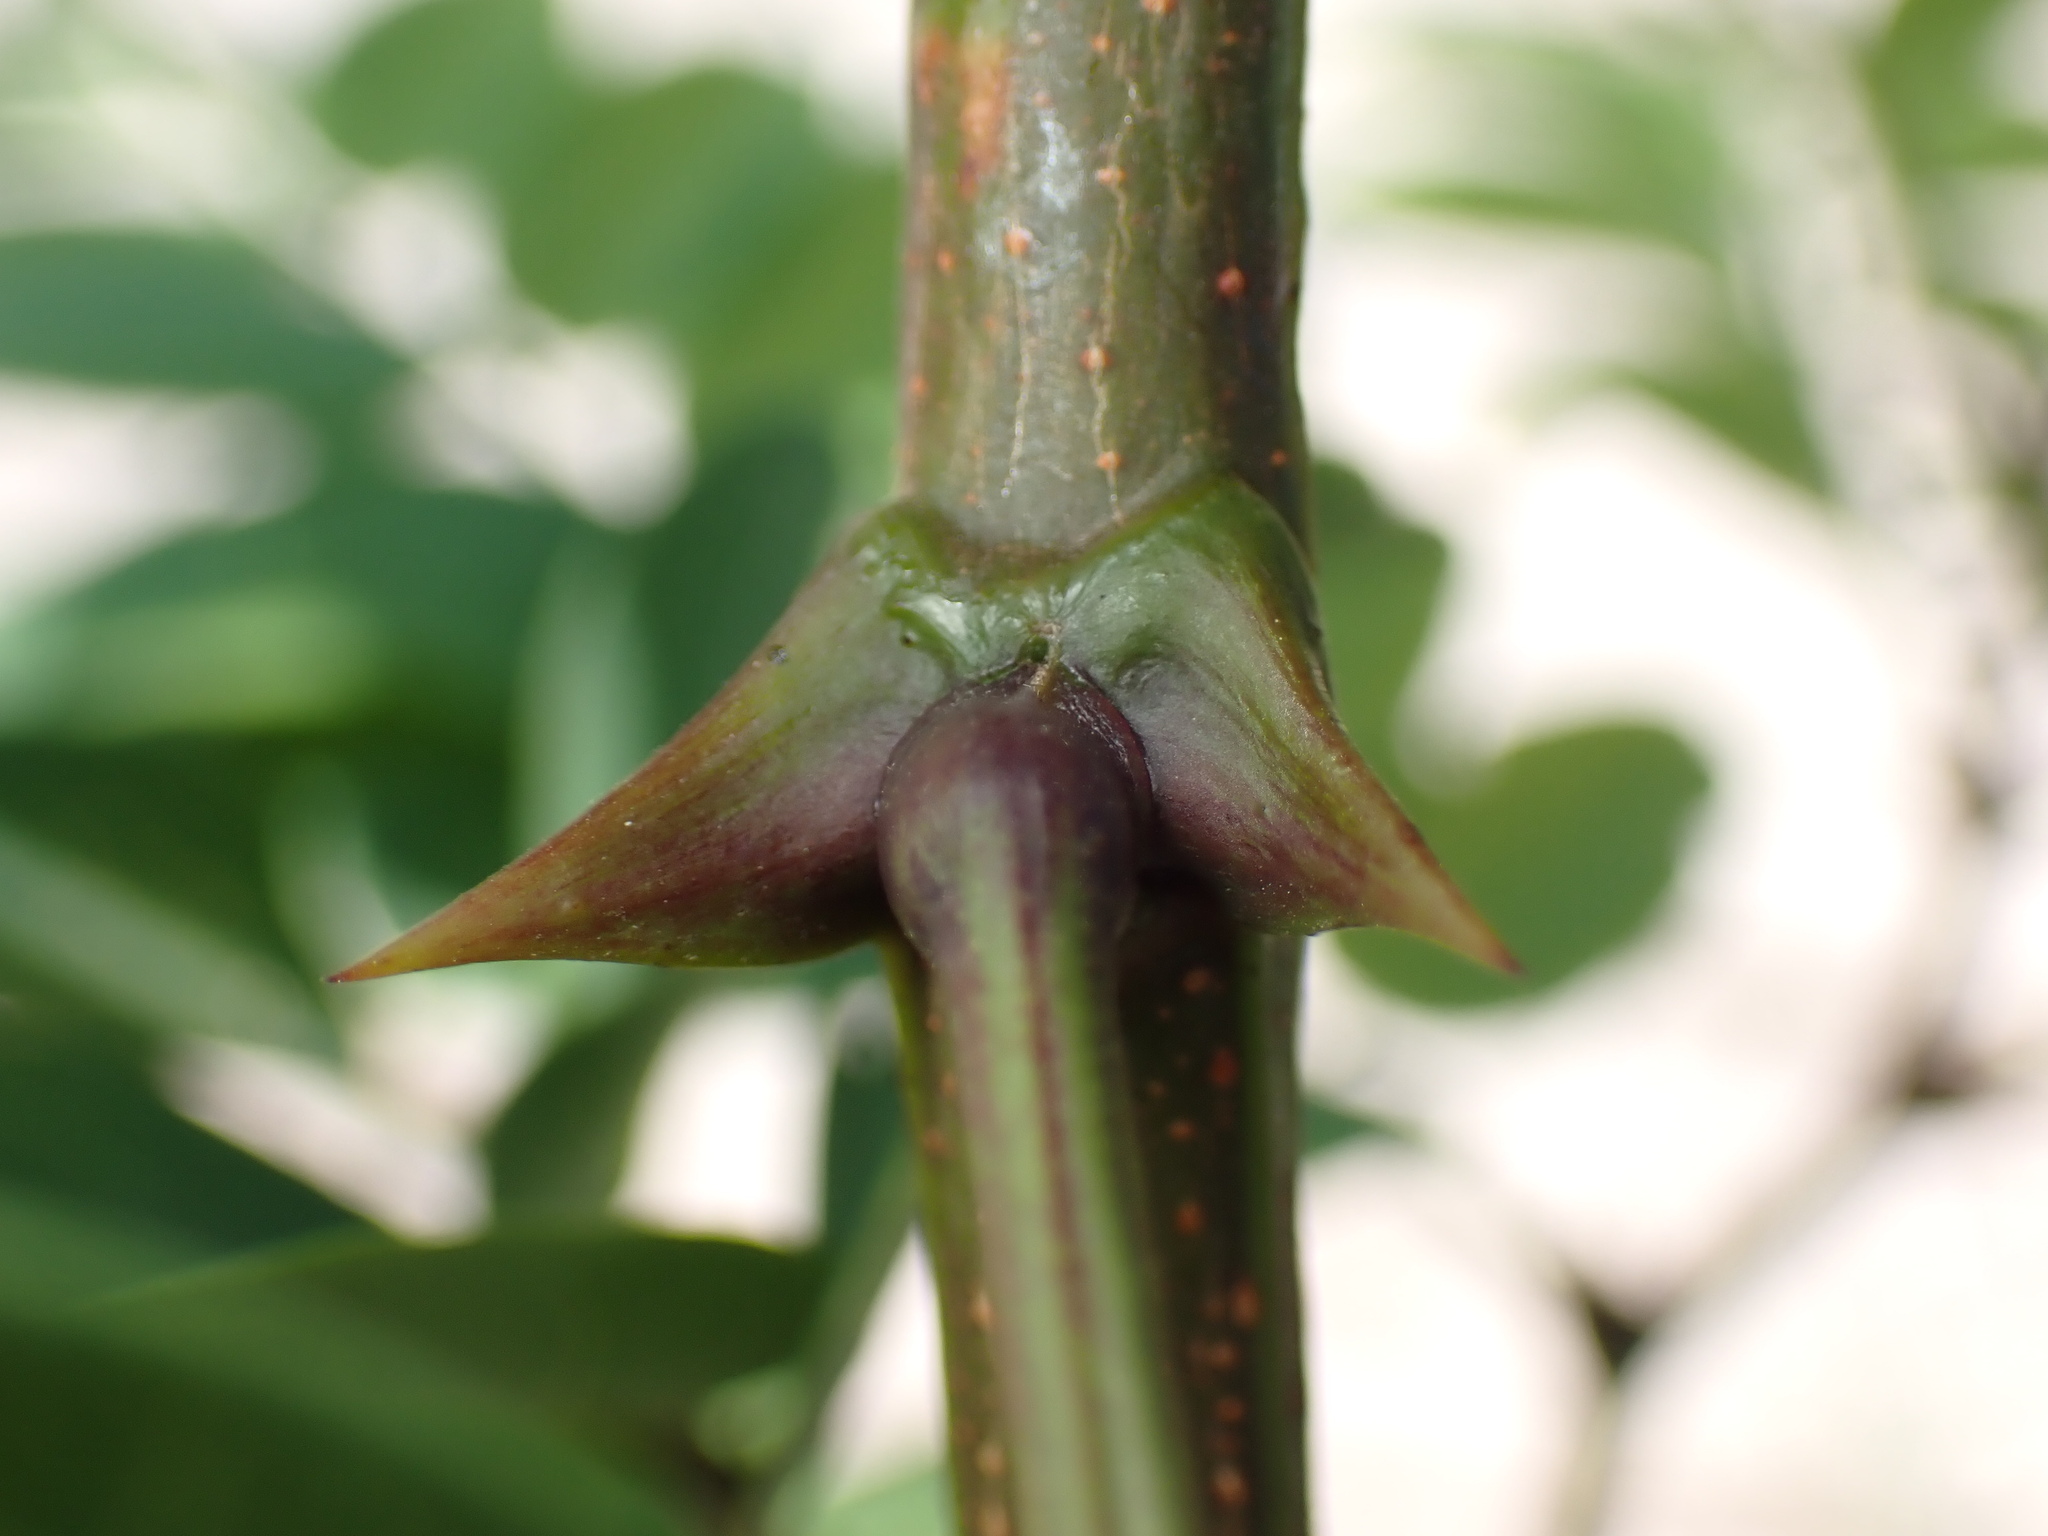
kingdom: Plantae
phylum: Tracheophyta
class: Magnoliopsida
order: Fabales
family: Fabaceae
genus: Robinia
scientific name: Robinia pseudoacacia
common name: Black locust
